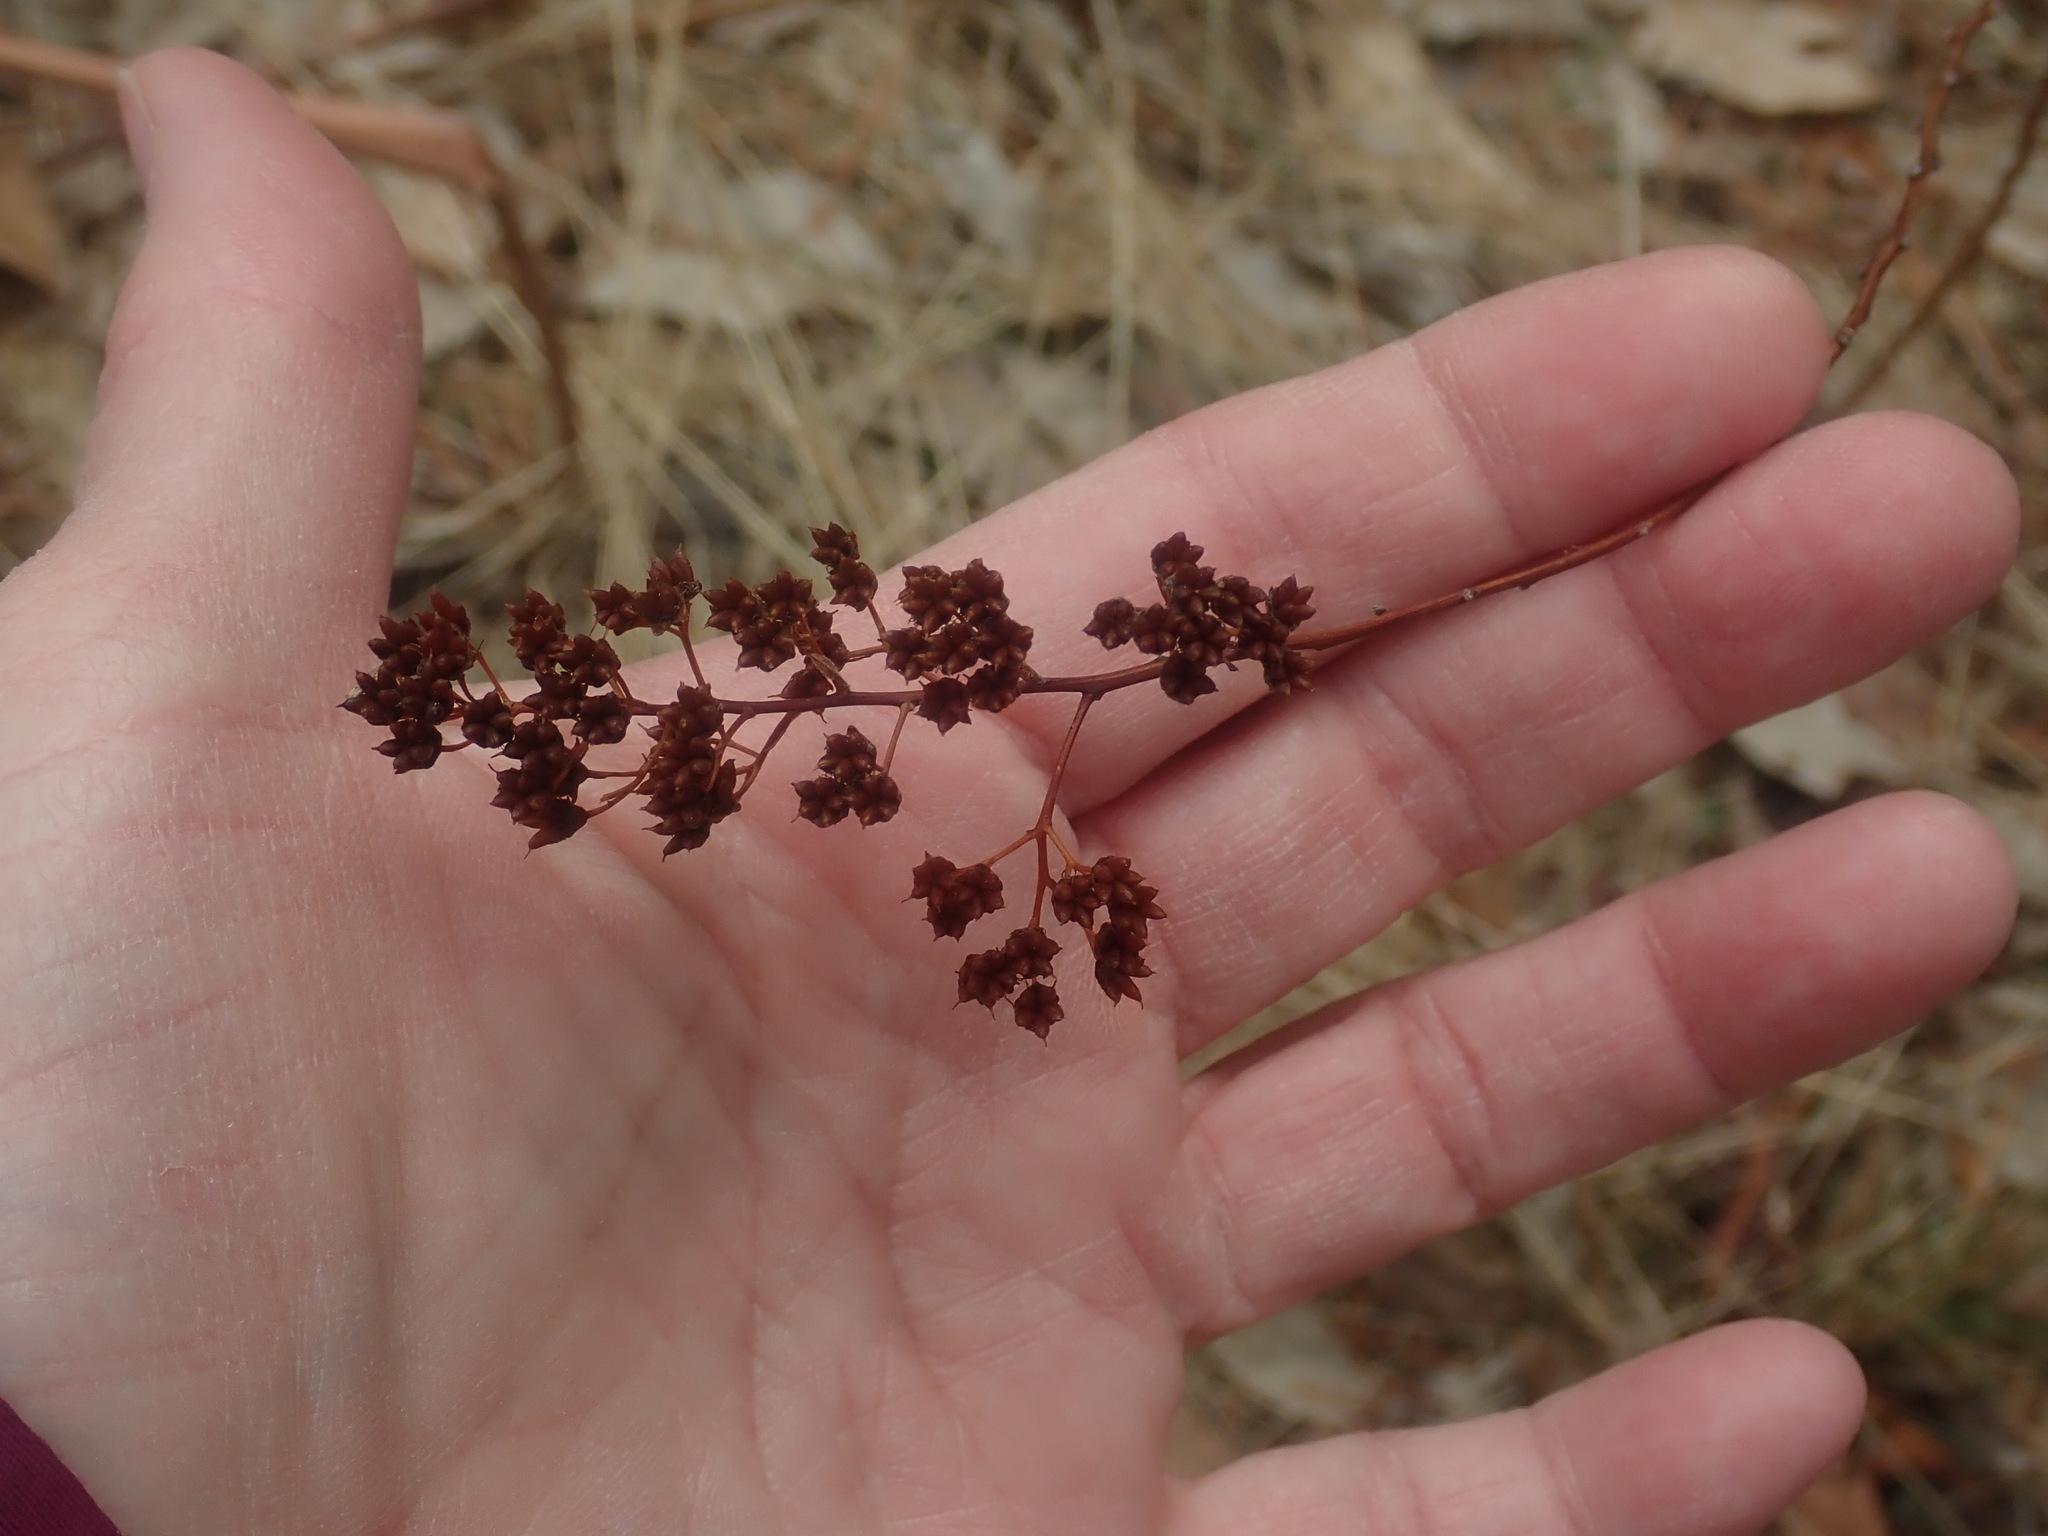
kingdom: Plantae
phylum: Tracheophyta
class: Magnoliopsida
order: Rosales
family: Rosaceae
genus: Spiraea
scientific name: Spiraea alba
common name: Pale bridewort
